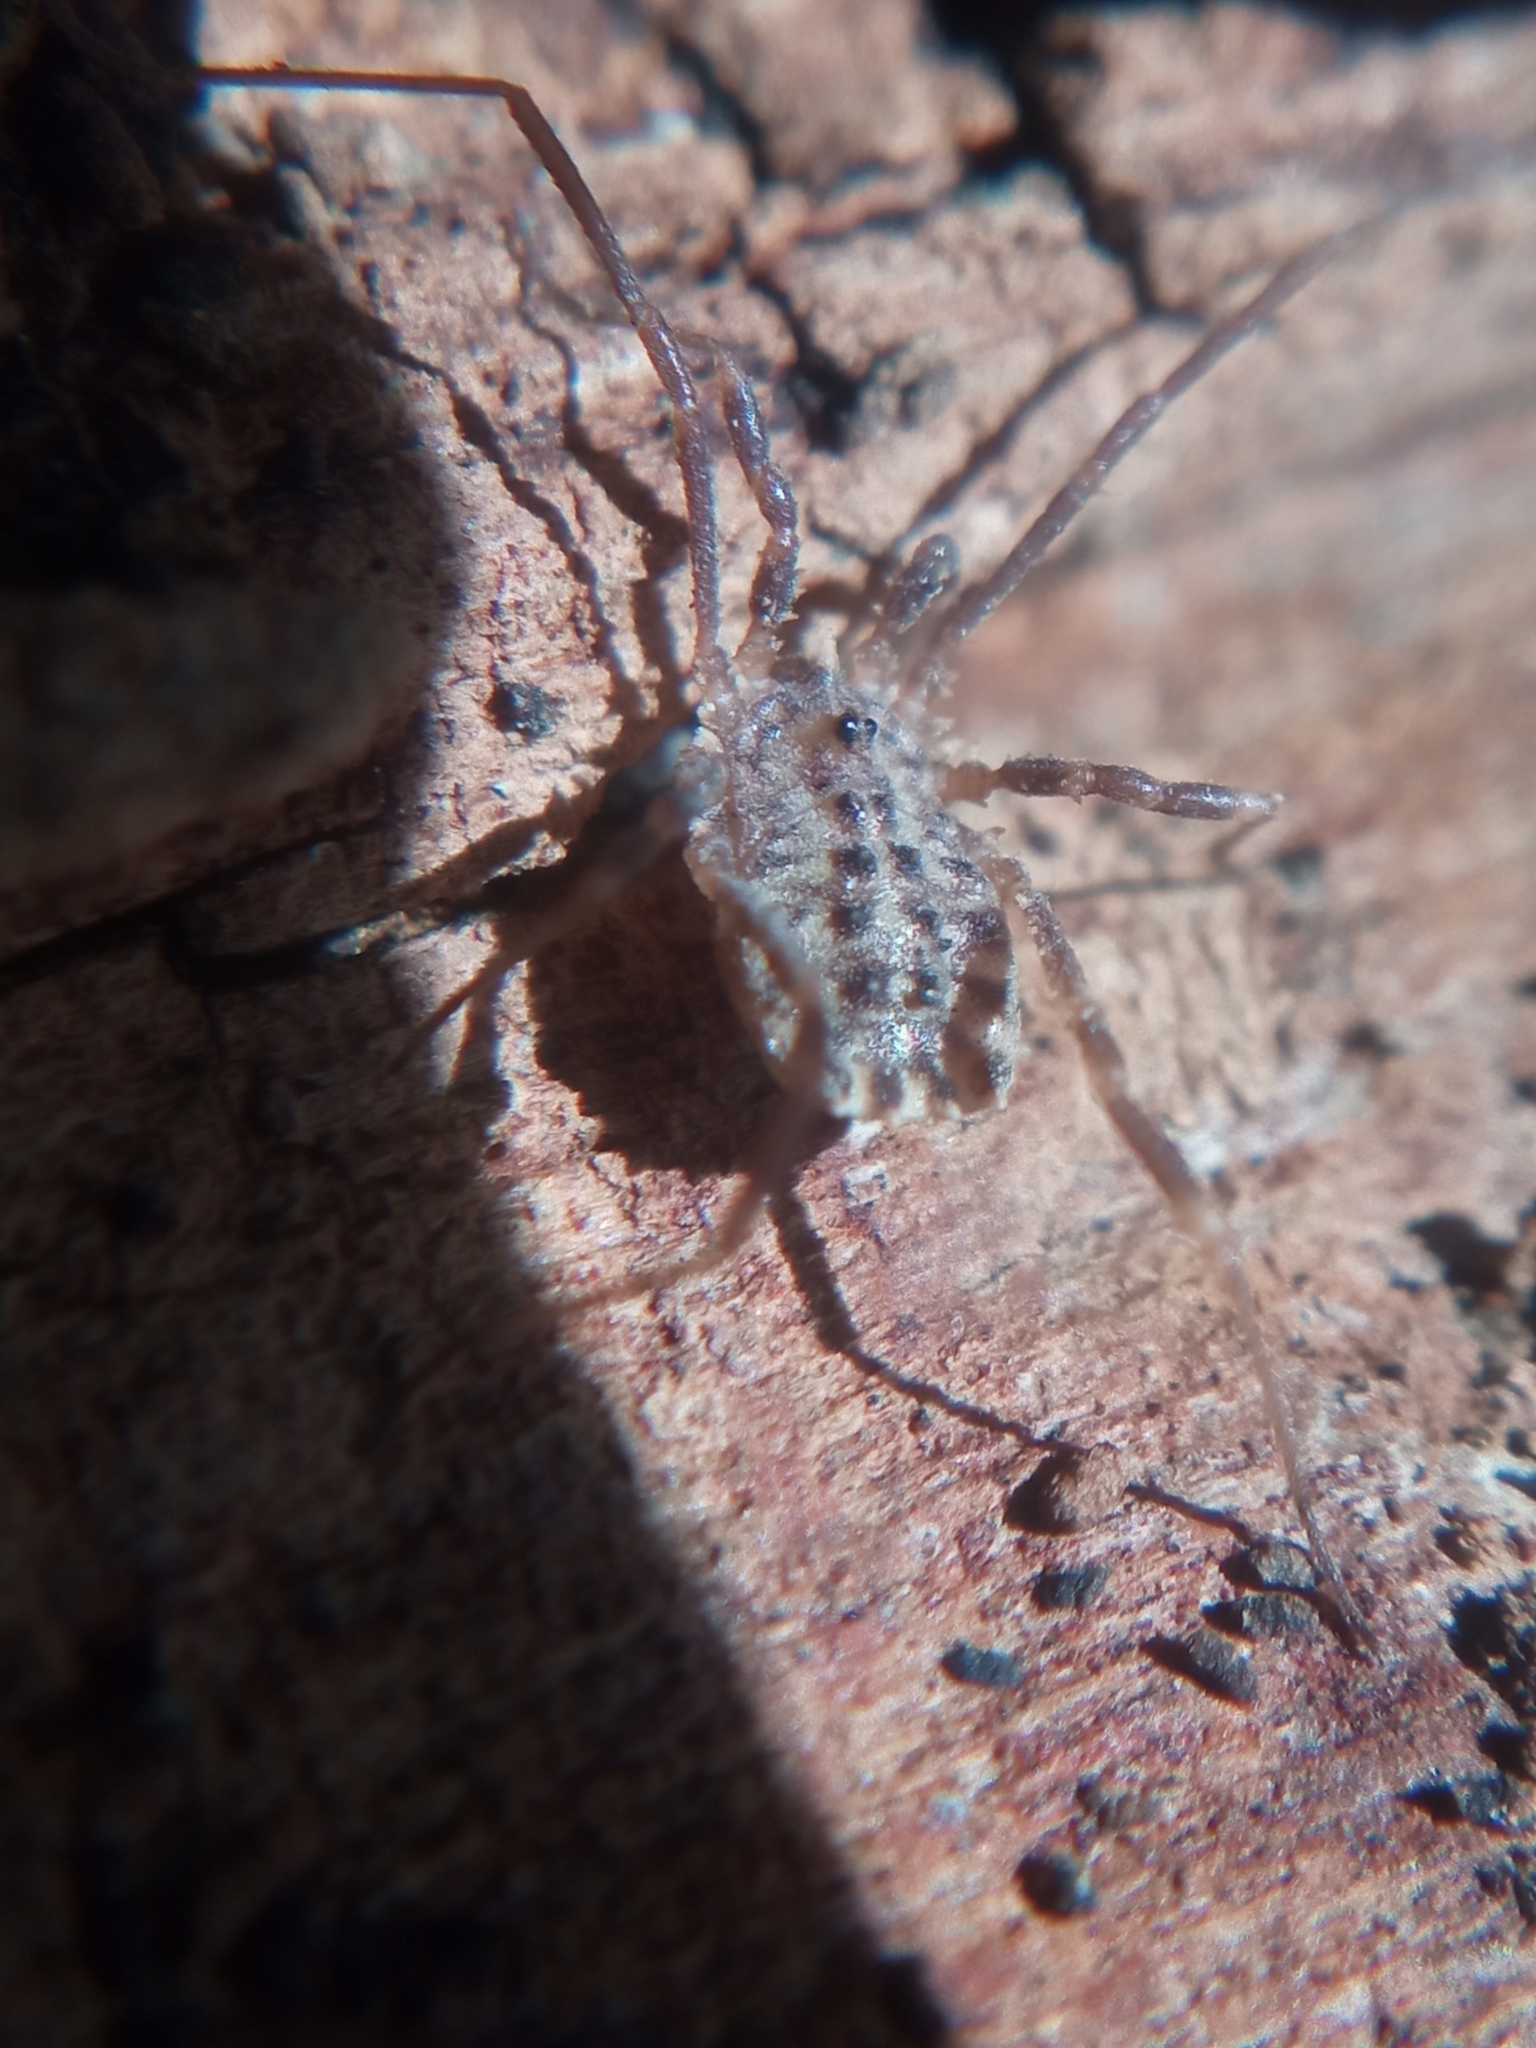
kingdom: Animalia
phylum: Arthropoda
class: Arachnida
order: Opiliones
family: Sclerosomatidae
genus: Homalenotus
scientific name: Homalenotus quadridentatus
